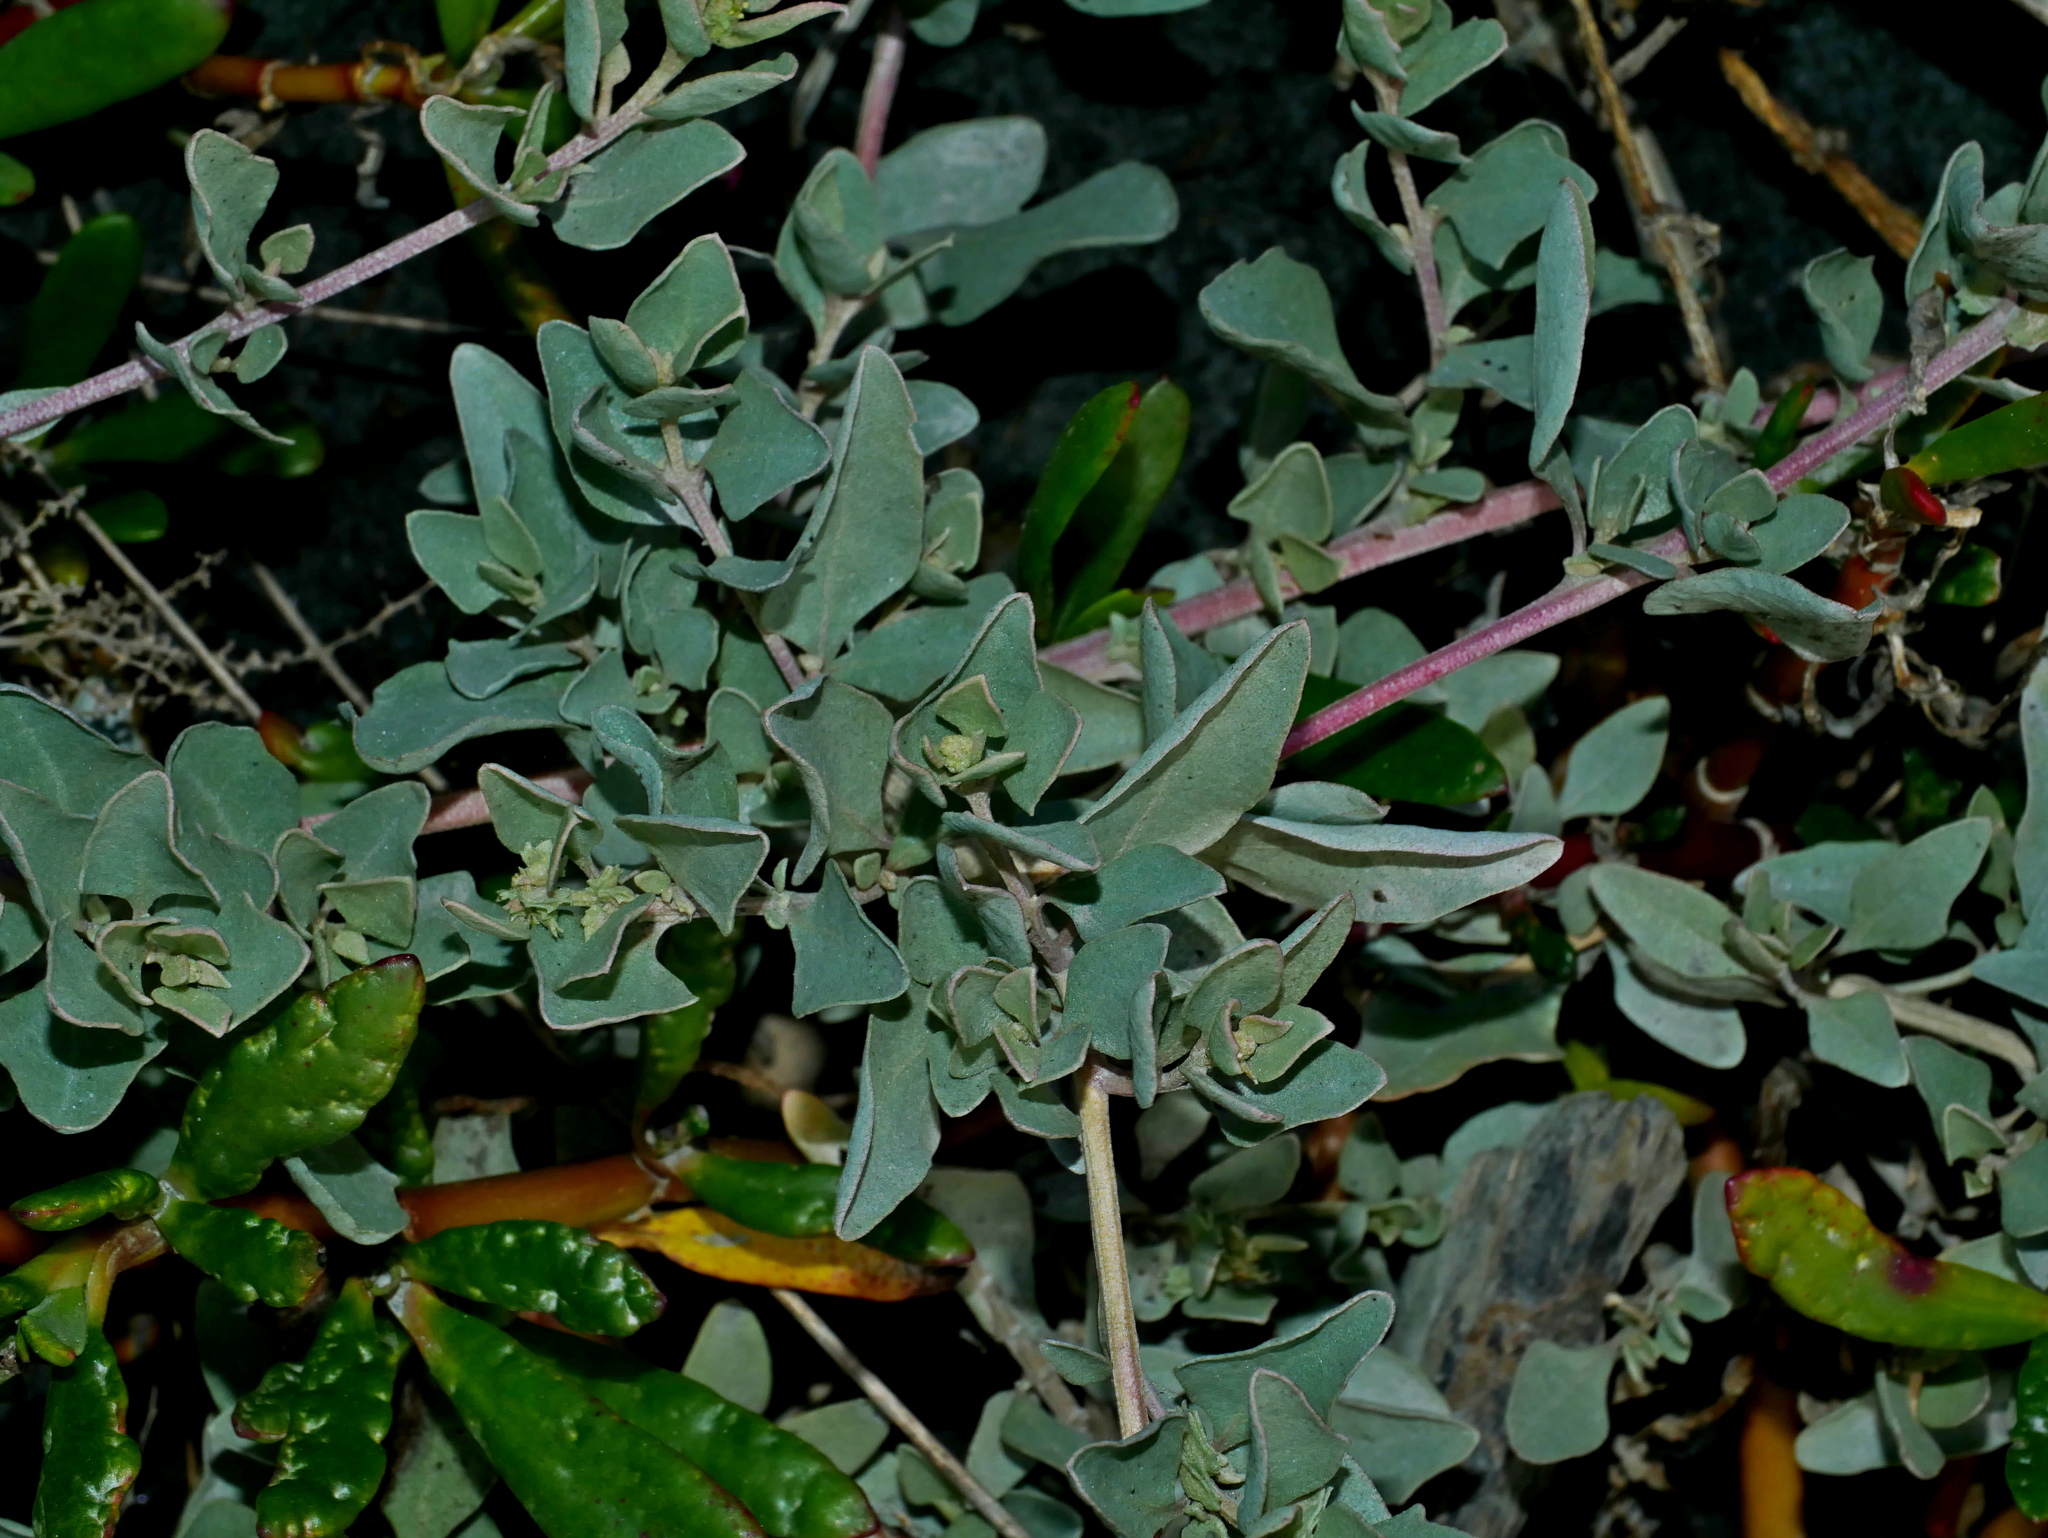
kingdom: Plantae
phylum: Tracheophyta
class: Magnoliopsida
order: Caryophyllales
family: Amaranthaceae
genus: Atriplex
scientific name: Atriplex maximowicziana
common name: Maximowicz's saltbush
